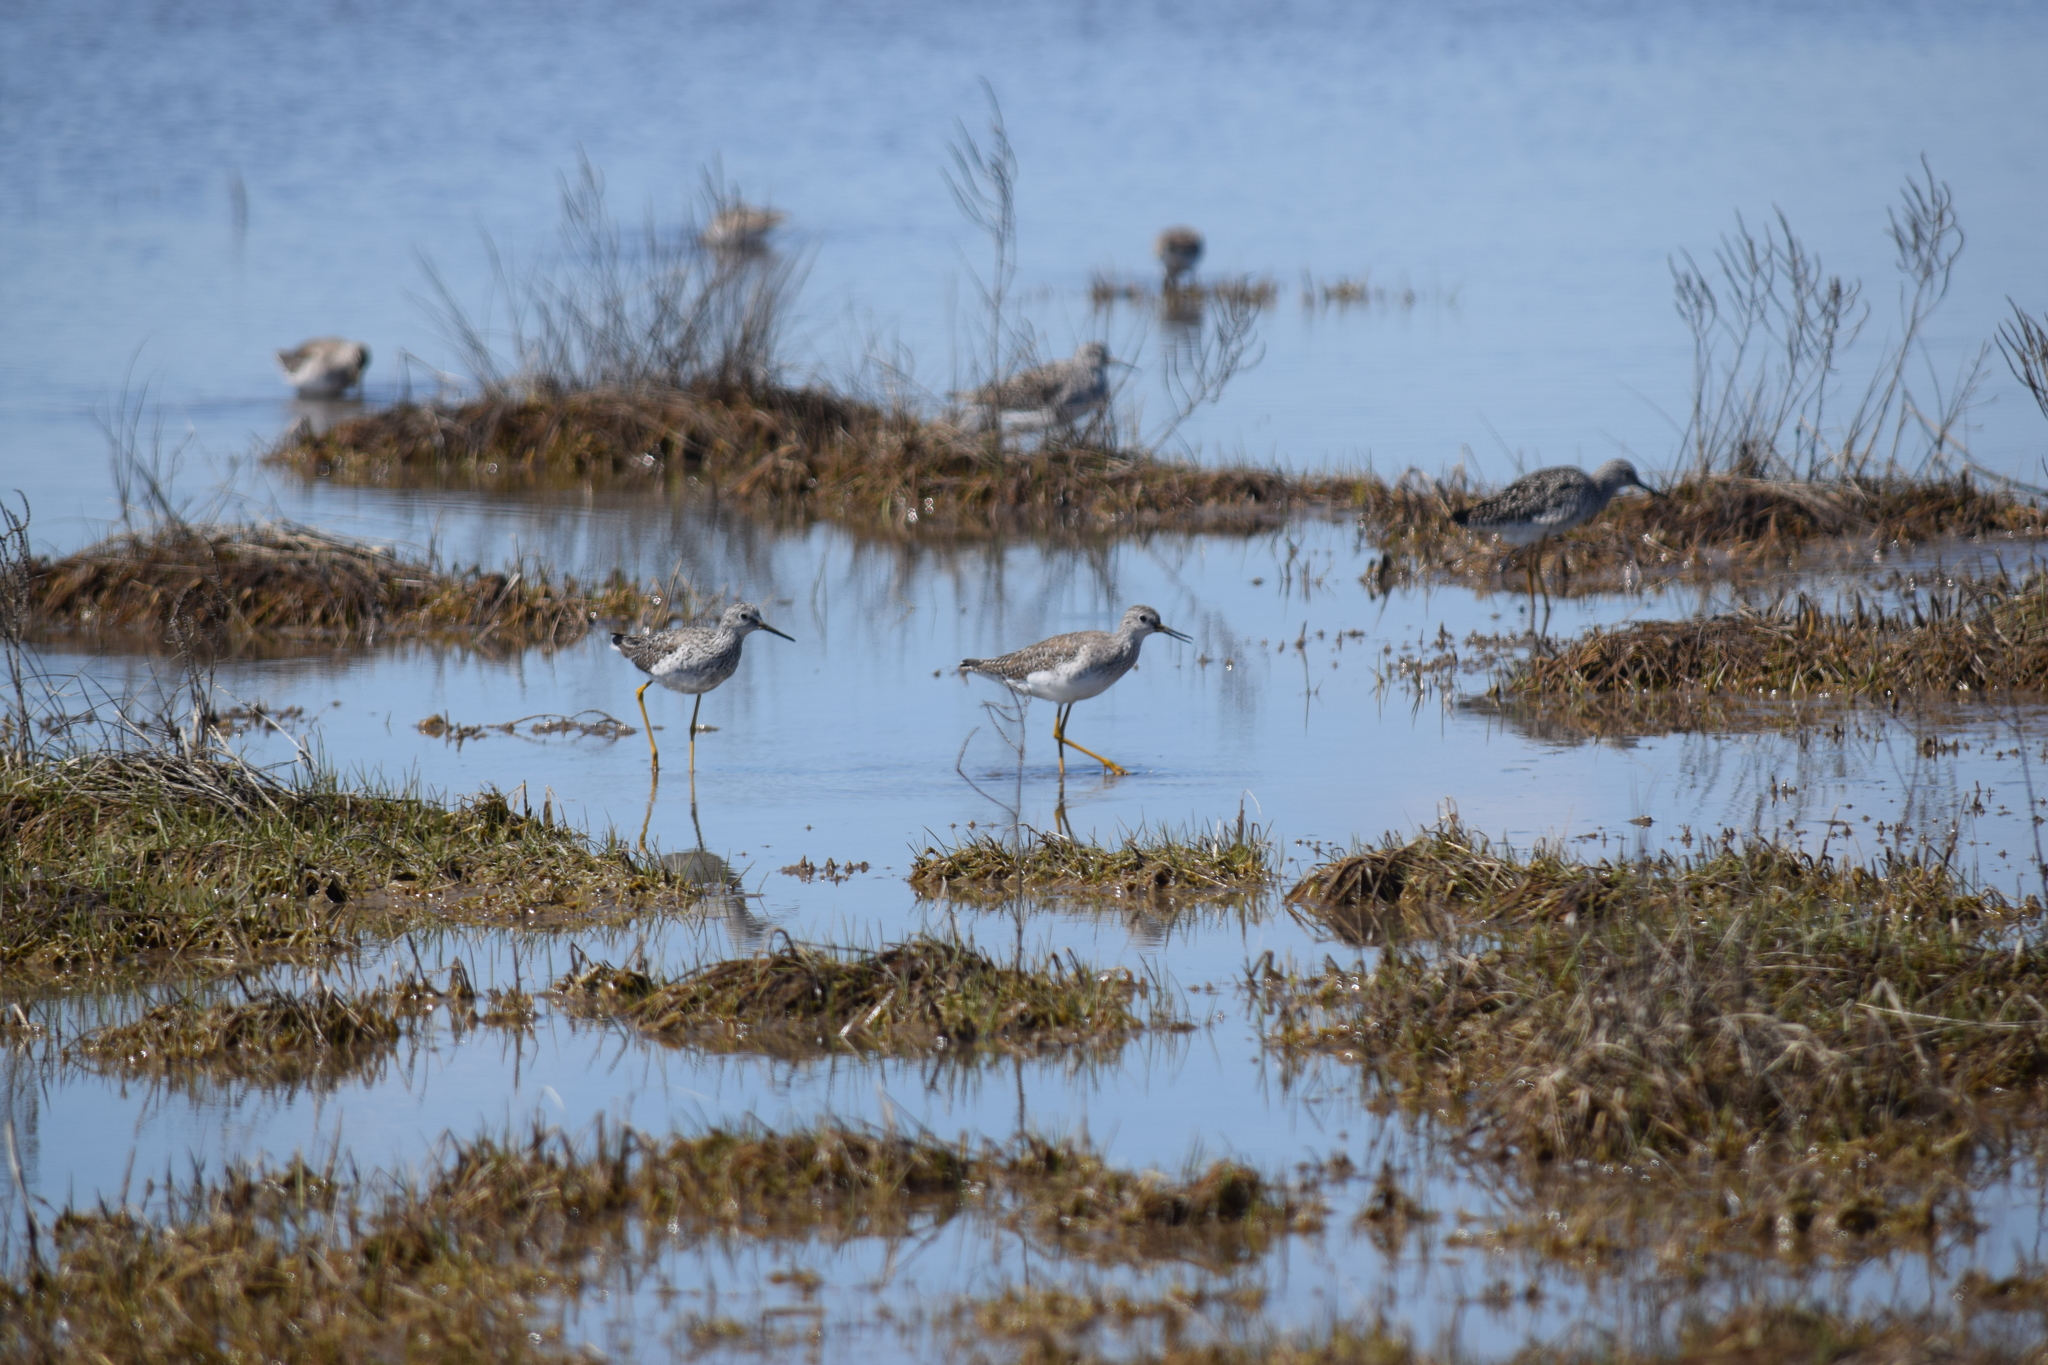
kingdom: Animalia
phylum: Chordata
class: Aves
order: Charadriiformes
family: Scolopacidae
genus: Tringa
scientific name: Tringa melanoleuca
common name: Greater yellowlegs
